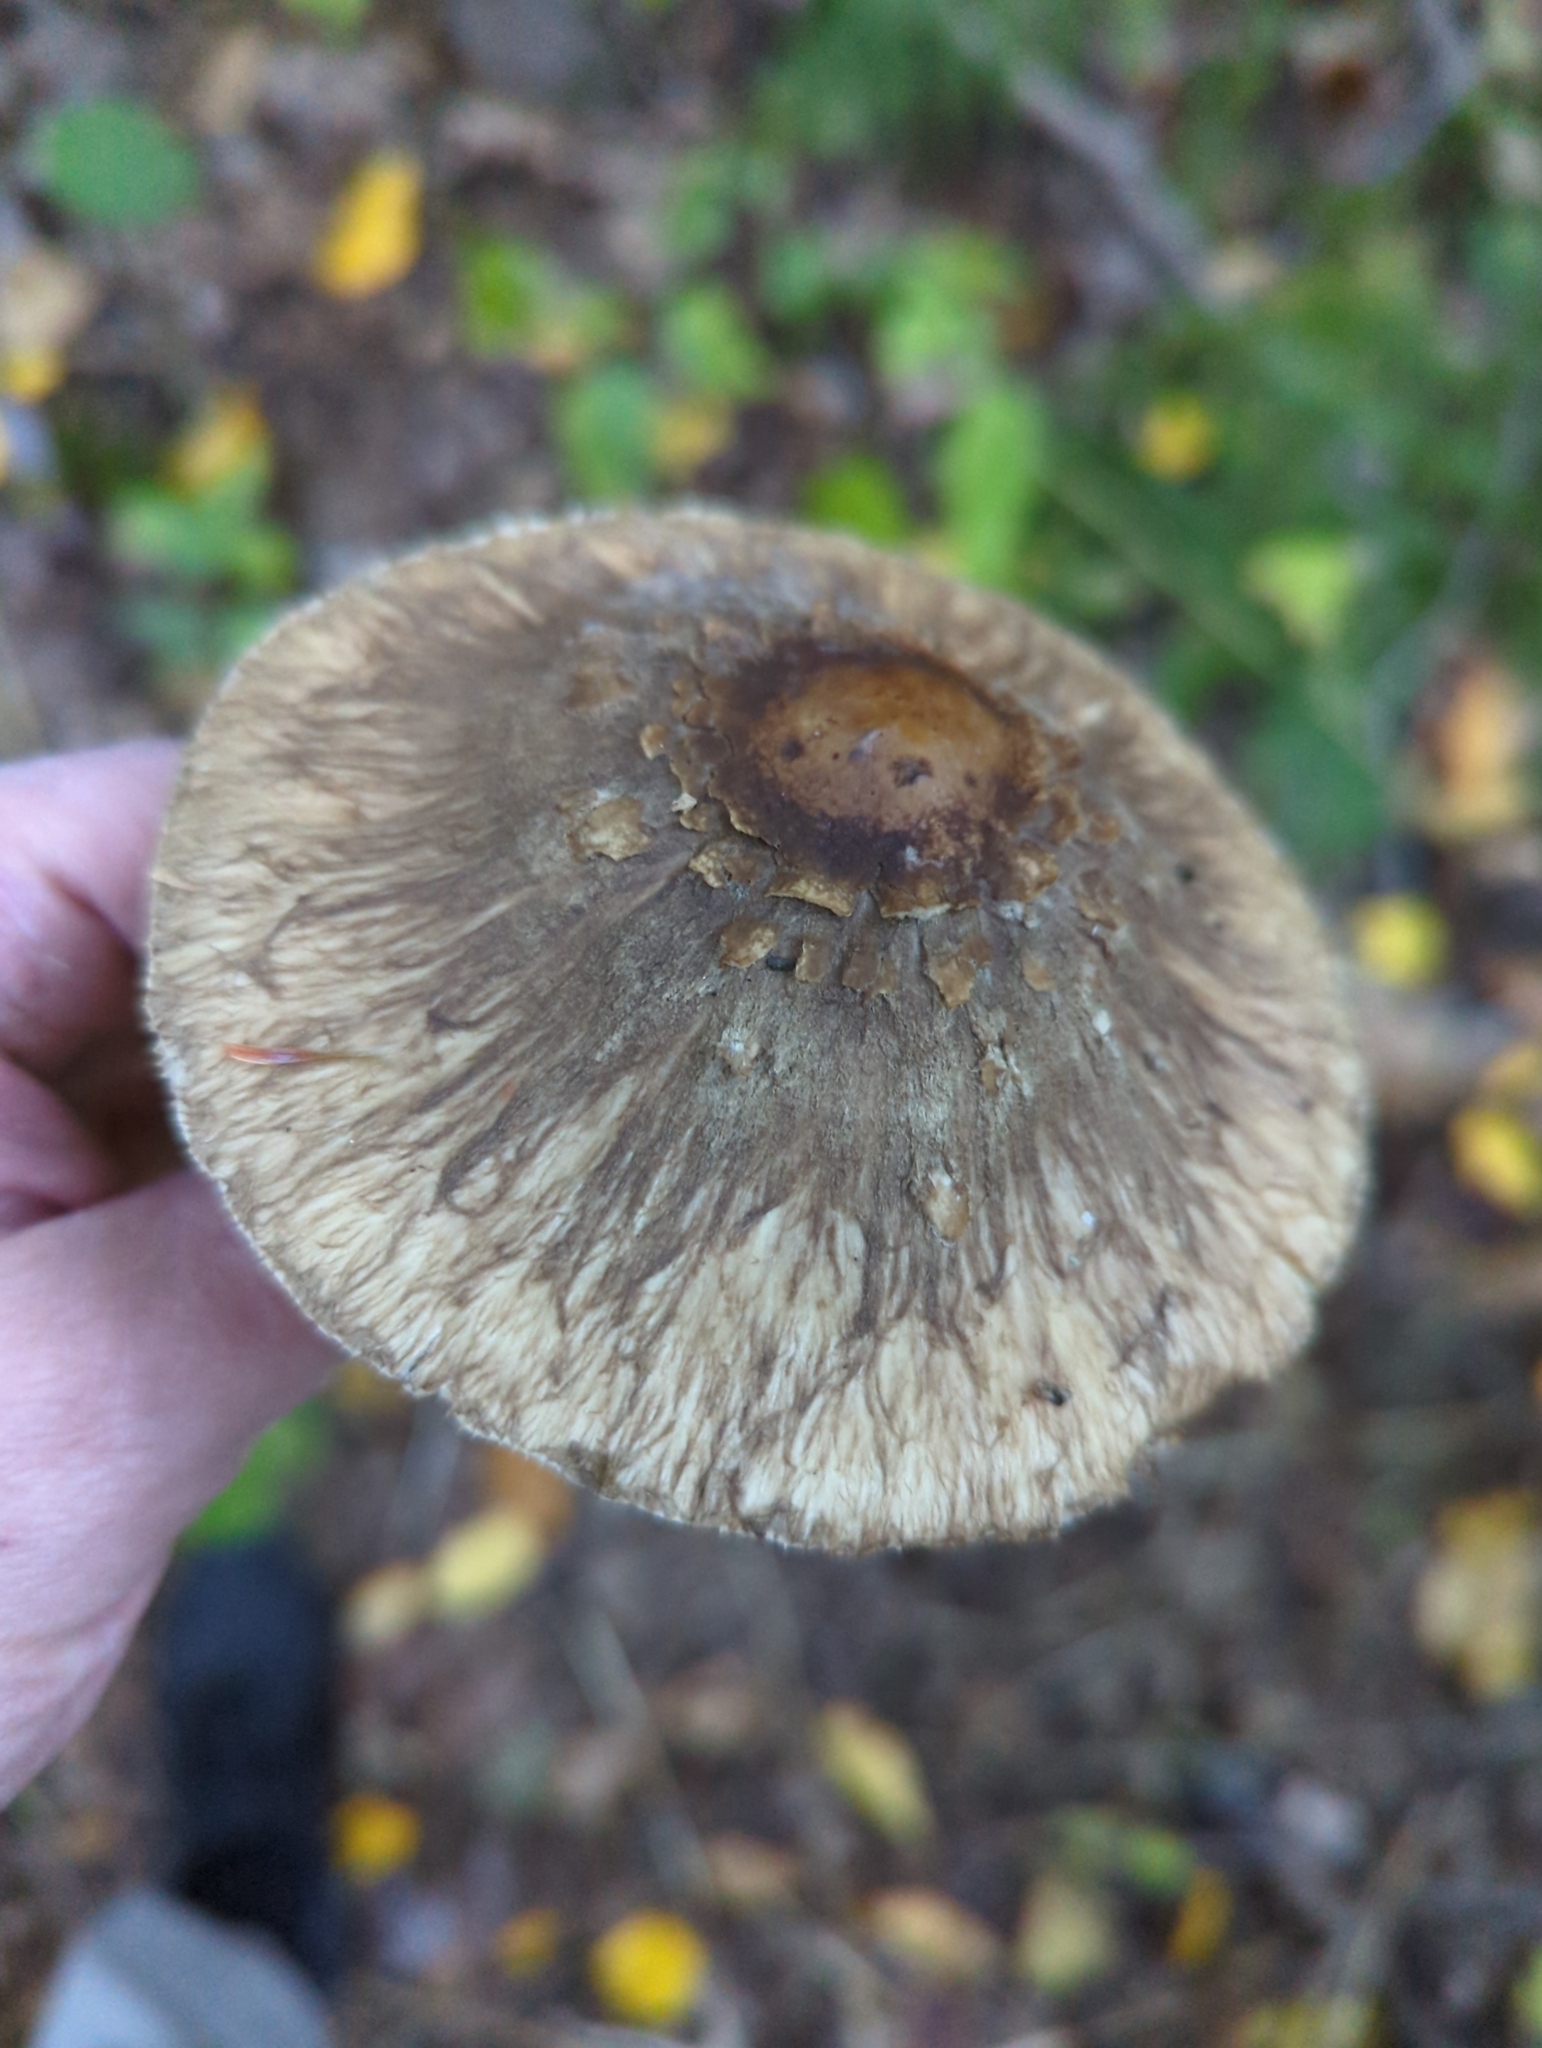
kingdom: Fungi
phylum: Basidiomycota
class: Agaricomycetes
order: Agaricales
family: Agaricaceae
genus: Chlorophyllum
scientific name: Chlorophyllum rhacodes
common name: Shaggy parasol
